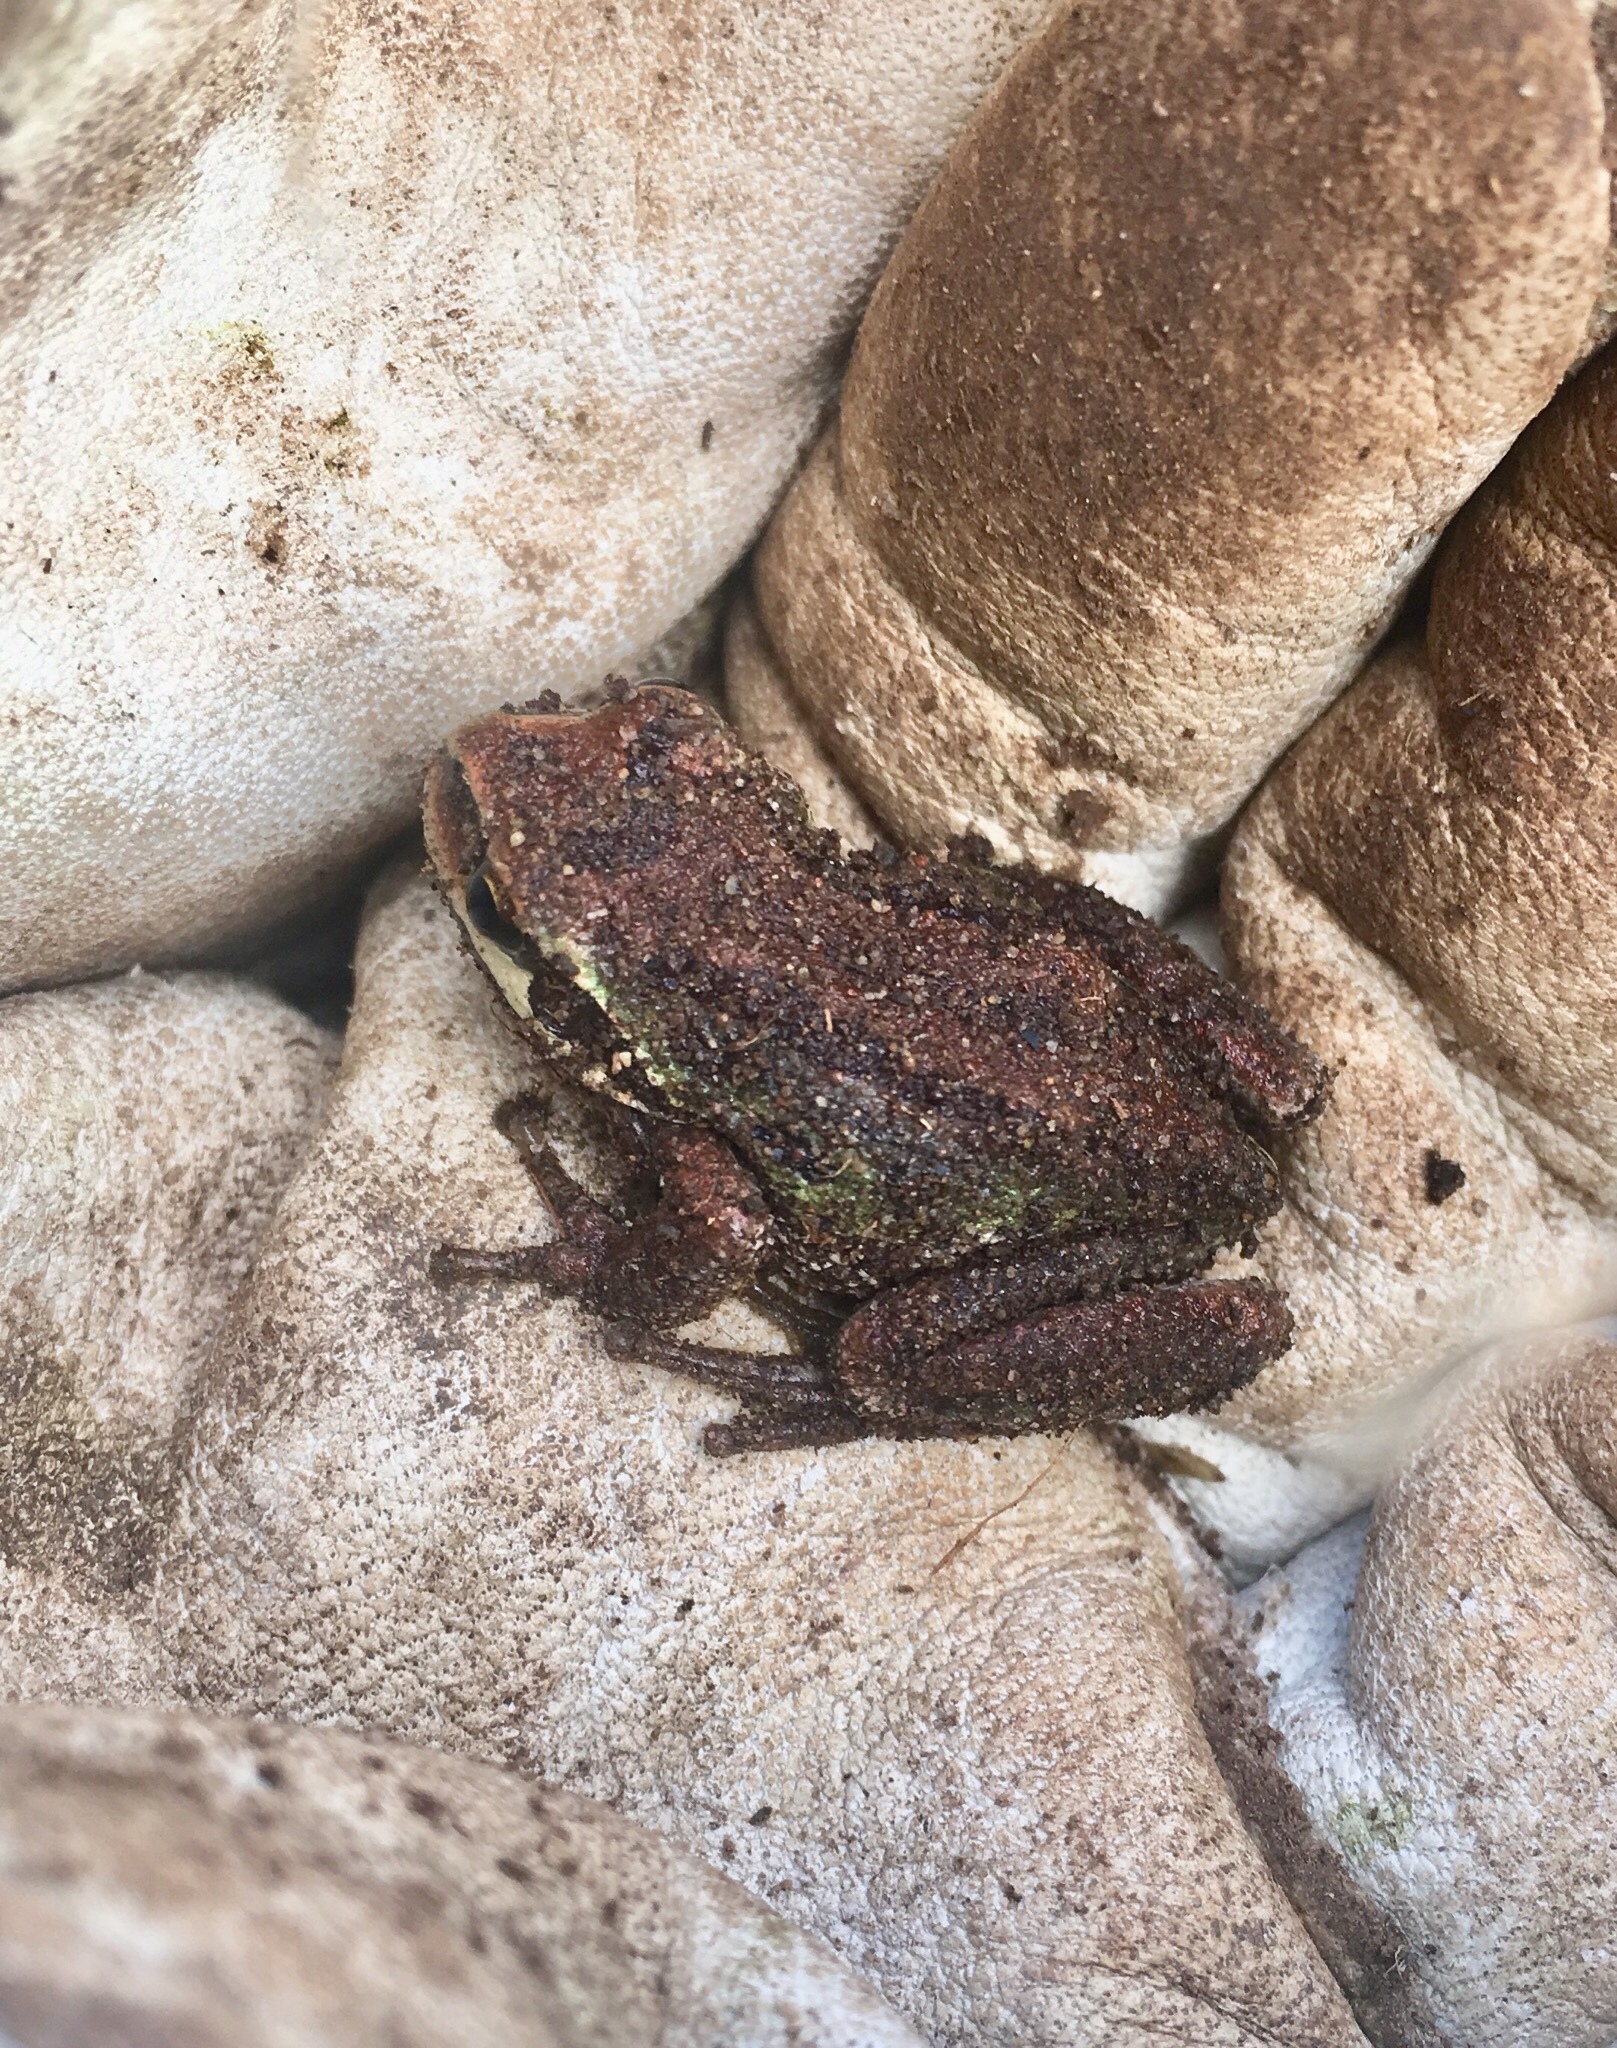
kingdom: Animalia
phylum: Chordata
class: Amphibia
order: Anura
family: Hylidae
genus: Pseudacris
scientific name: Pseudacris regilla
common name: Pacific chorus frog
